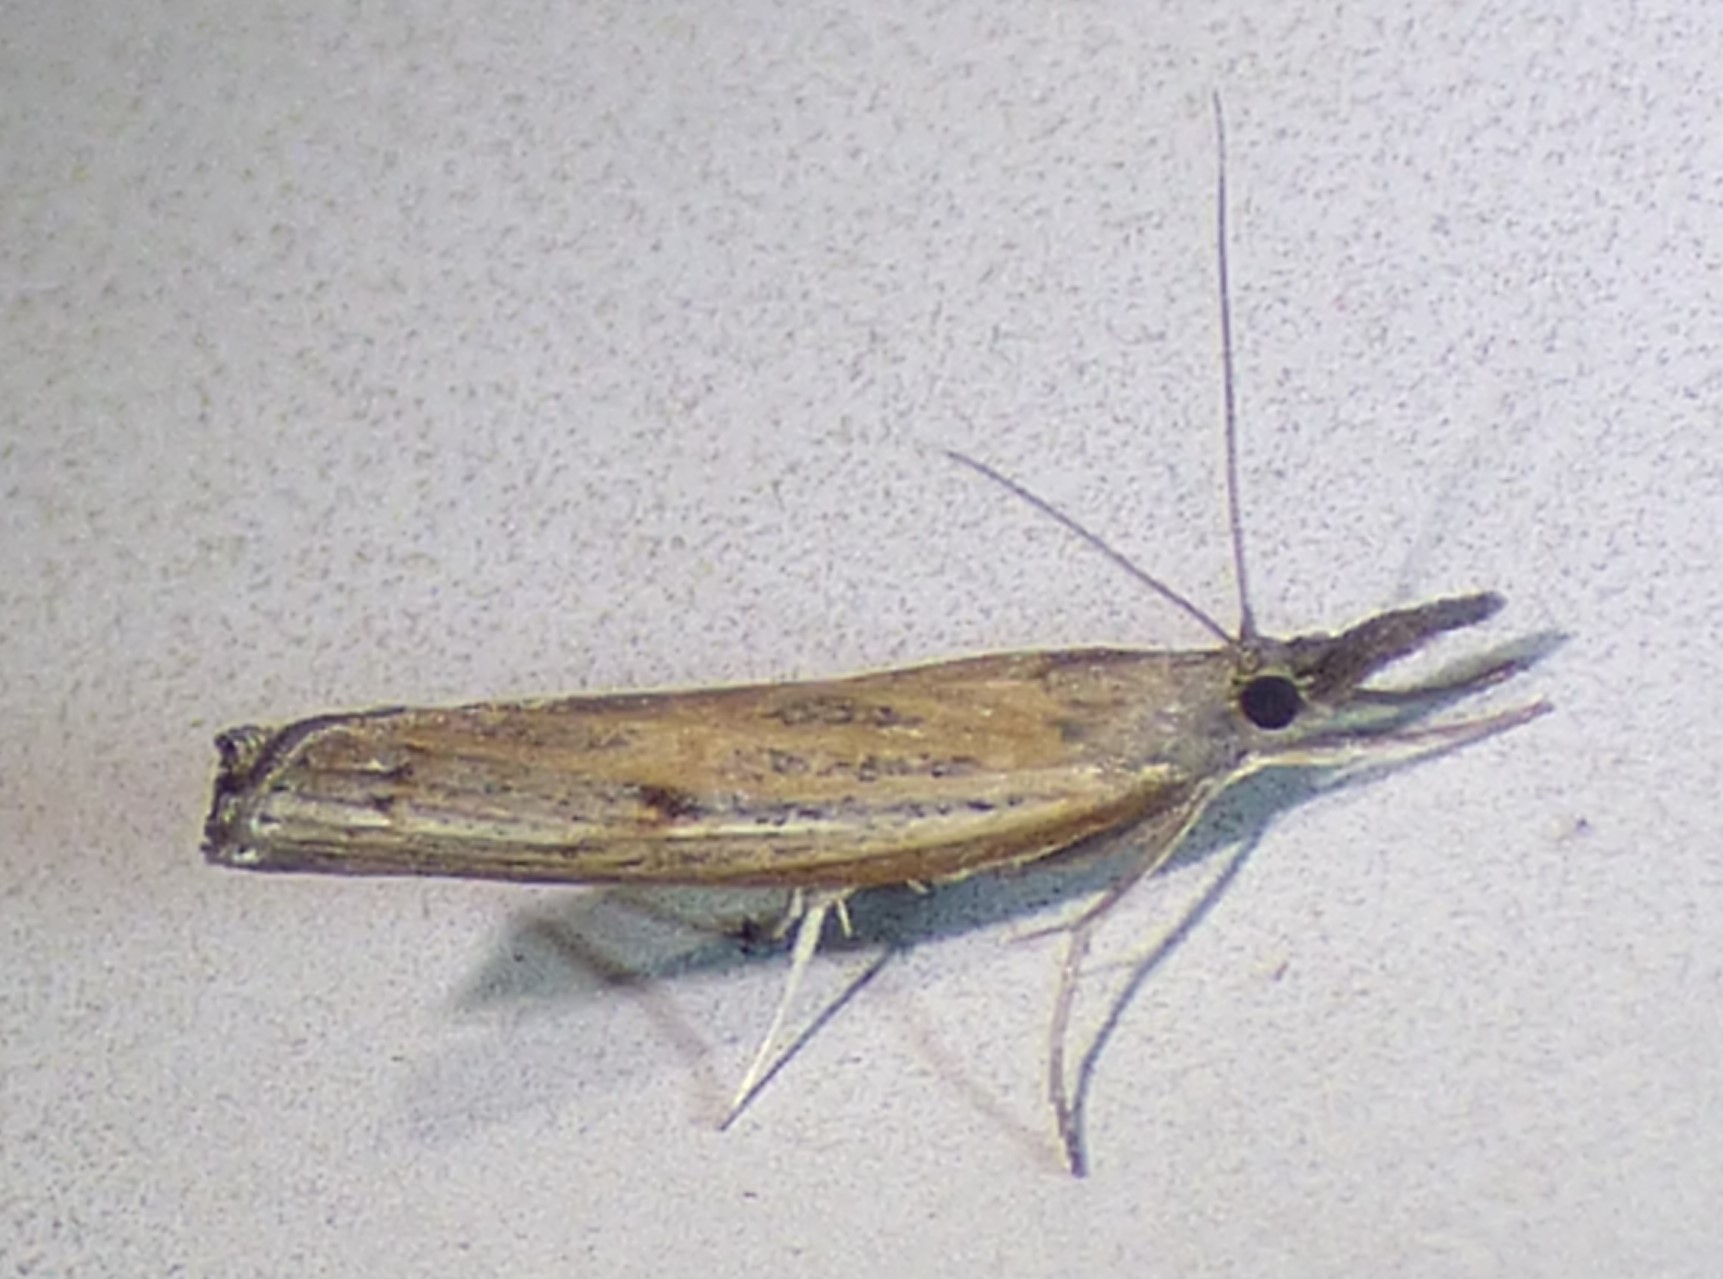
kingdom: Animalia
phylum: Arthropoda
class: Insecta
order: Lepidoptera
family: Crambidae
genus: Fissicrambus
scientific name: Fissicrambus mutabilis
